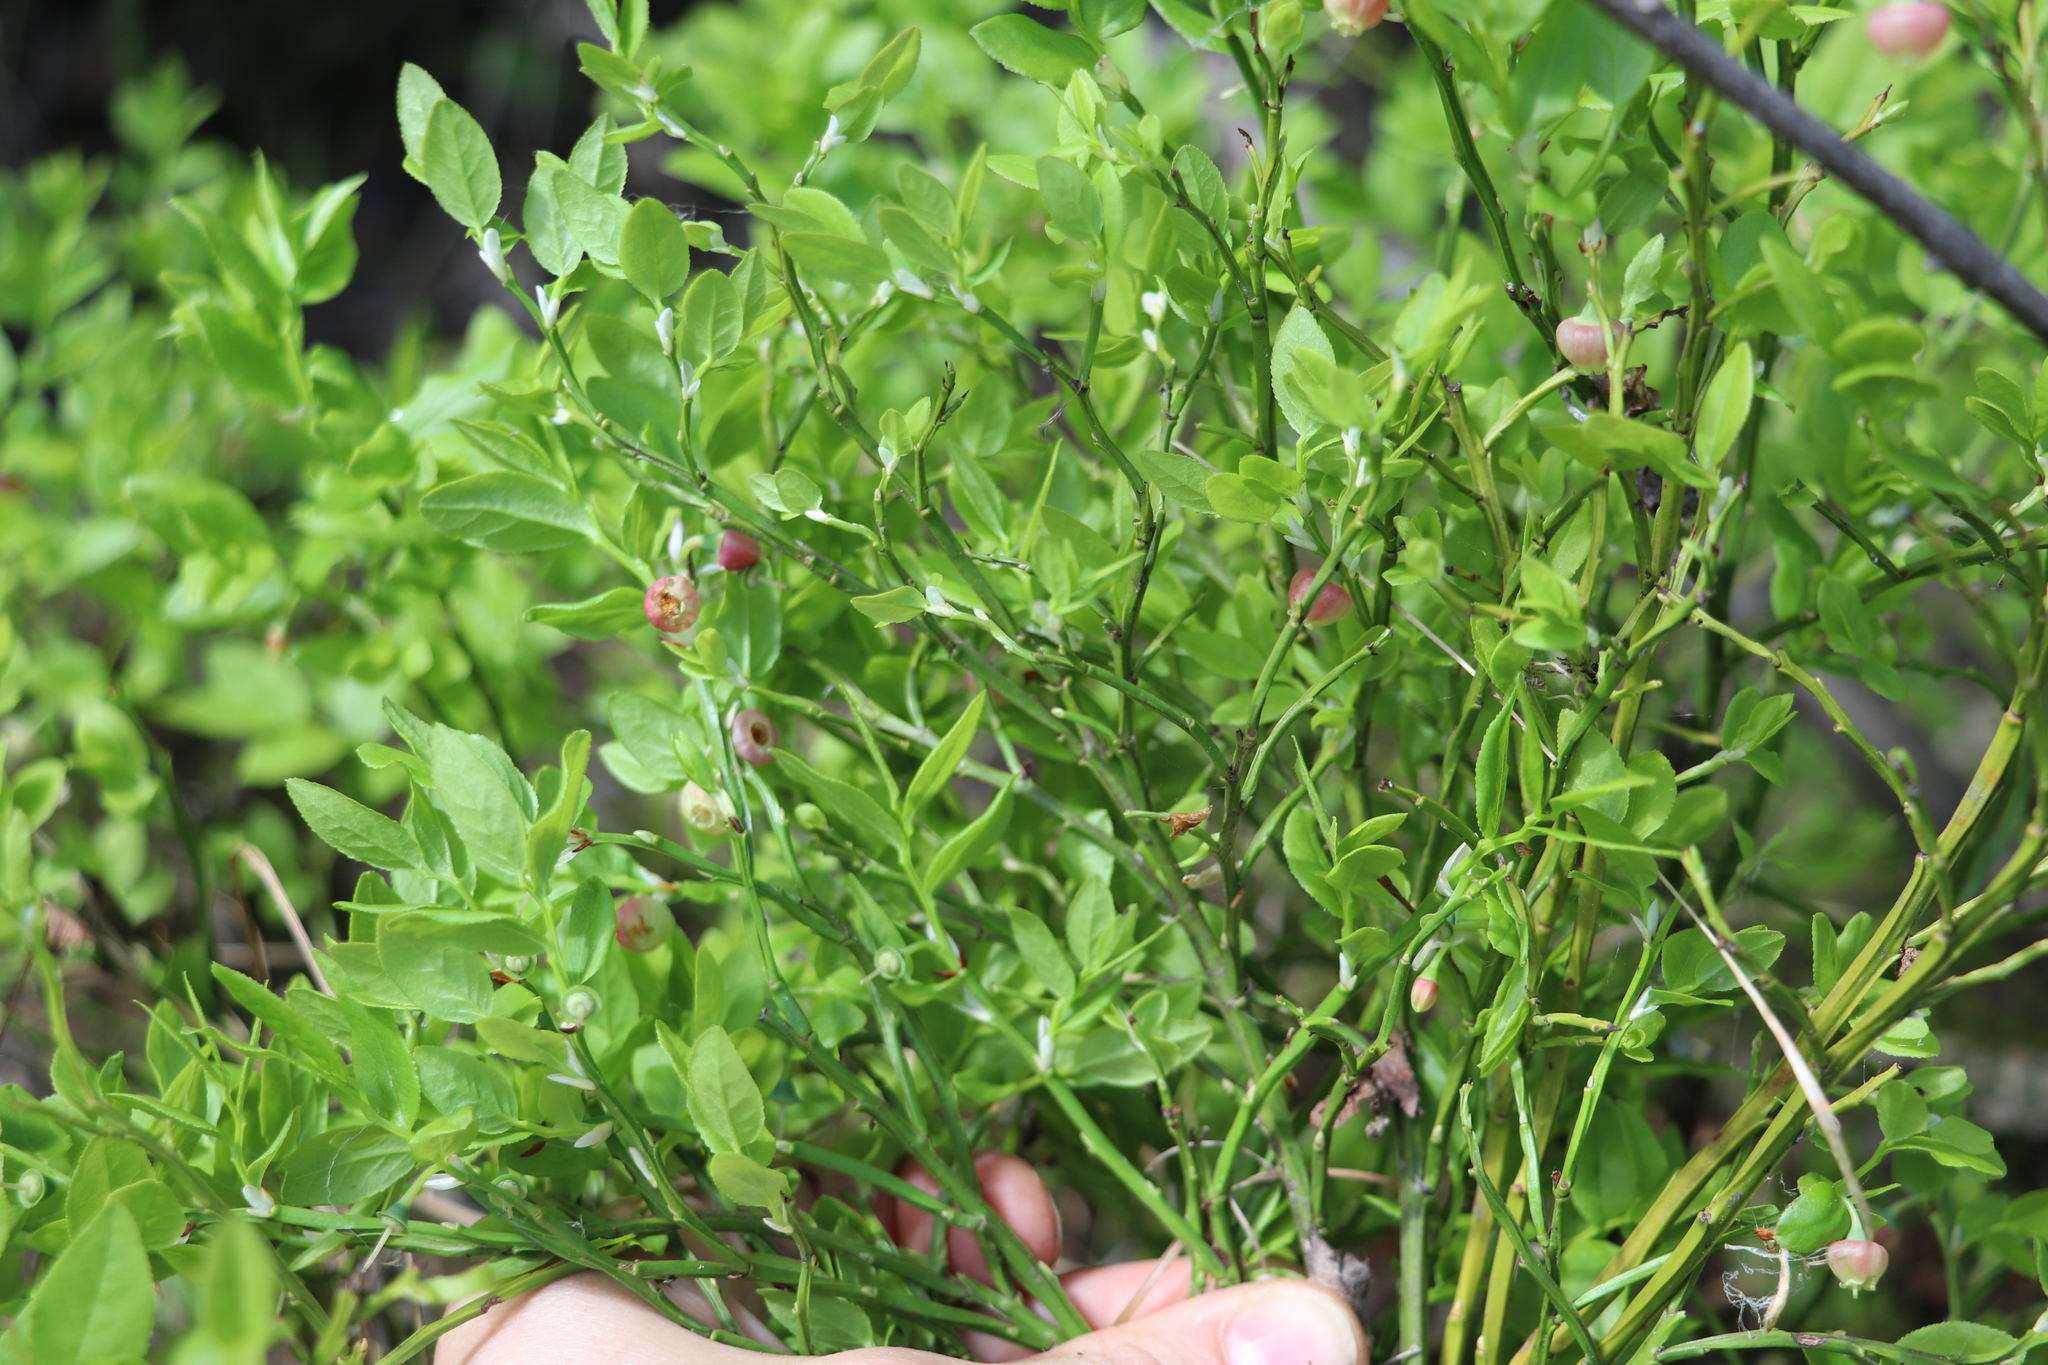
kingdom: Plantae
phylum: Tracheophyta
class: Magnoliopsida
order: Ericales
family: Ericaceae
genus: Vaccinium
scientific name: Vaccinium myrtillus
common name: Bilberry
